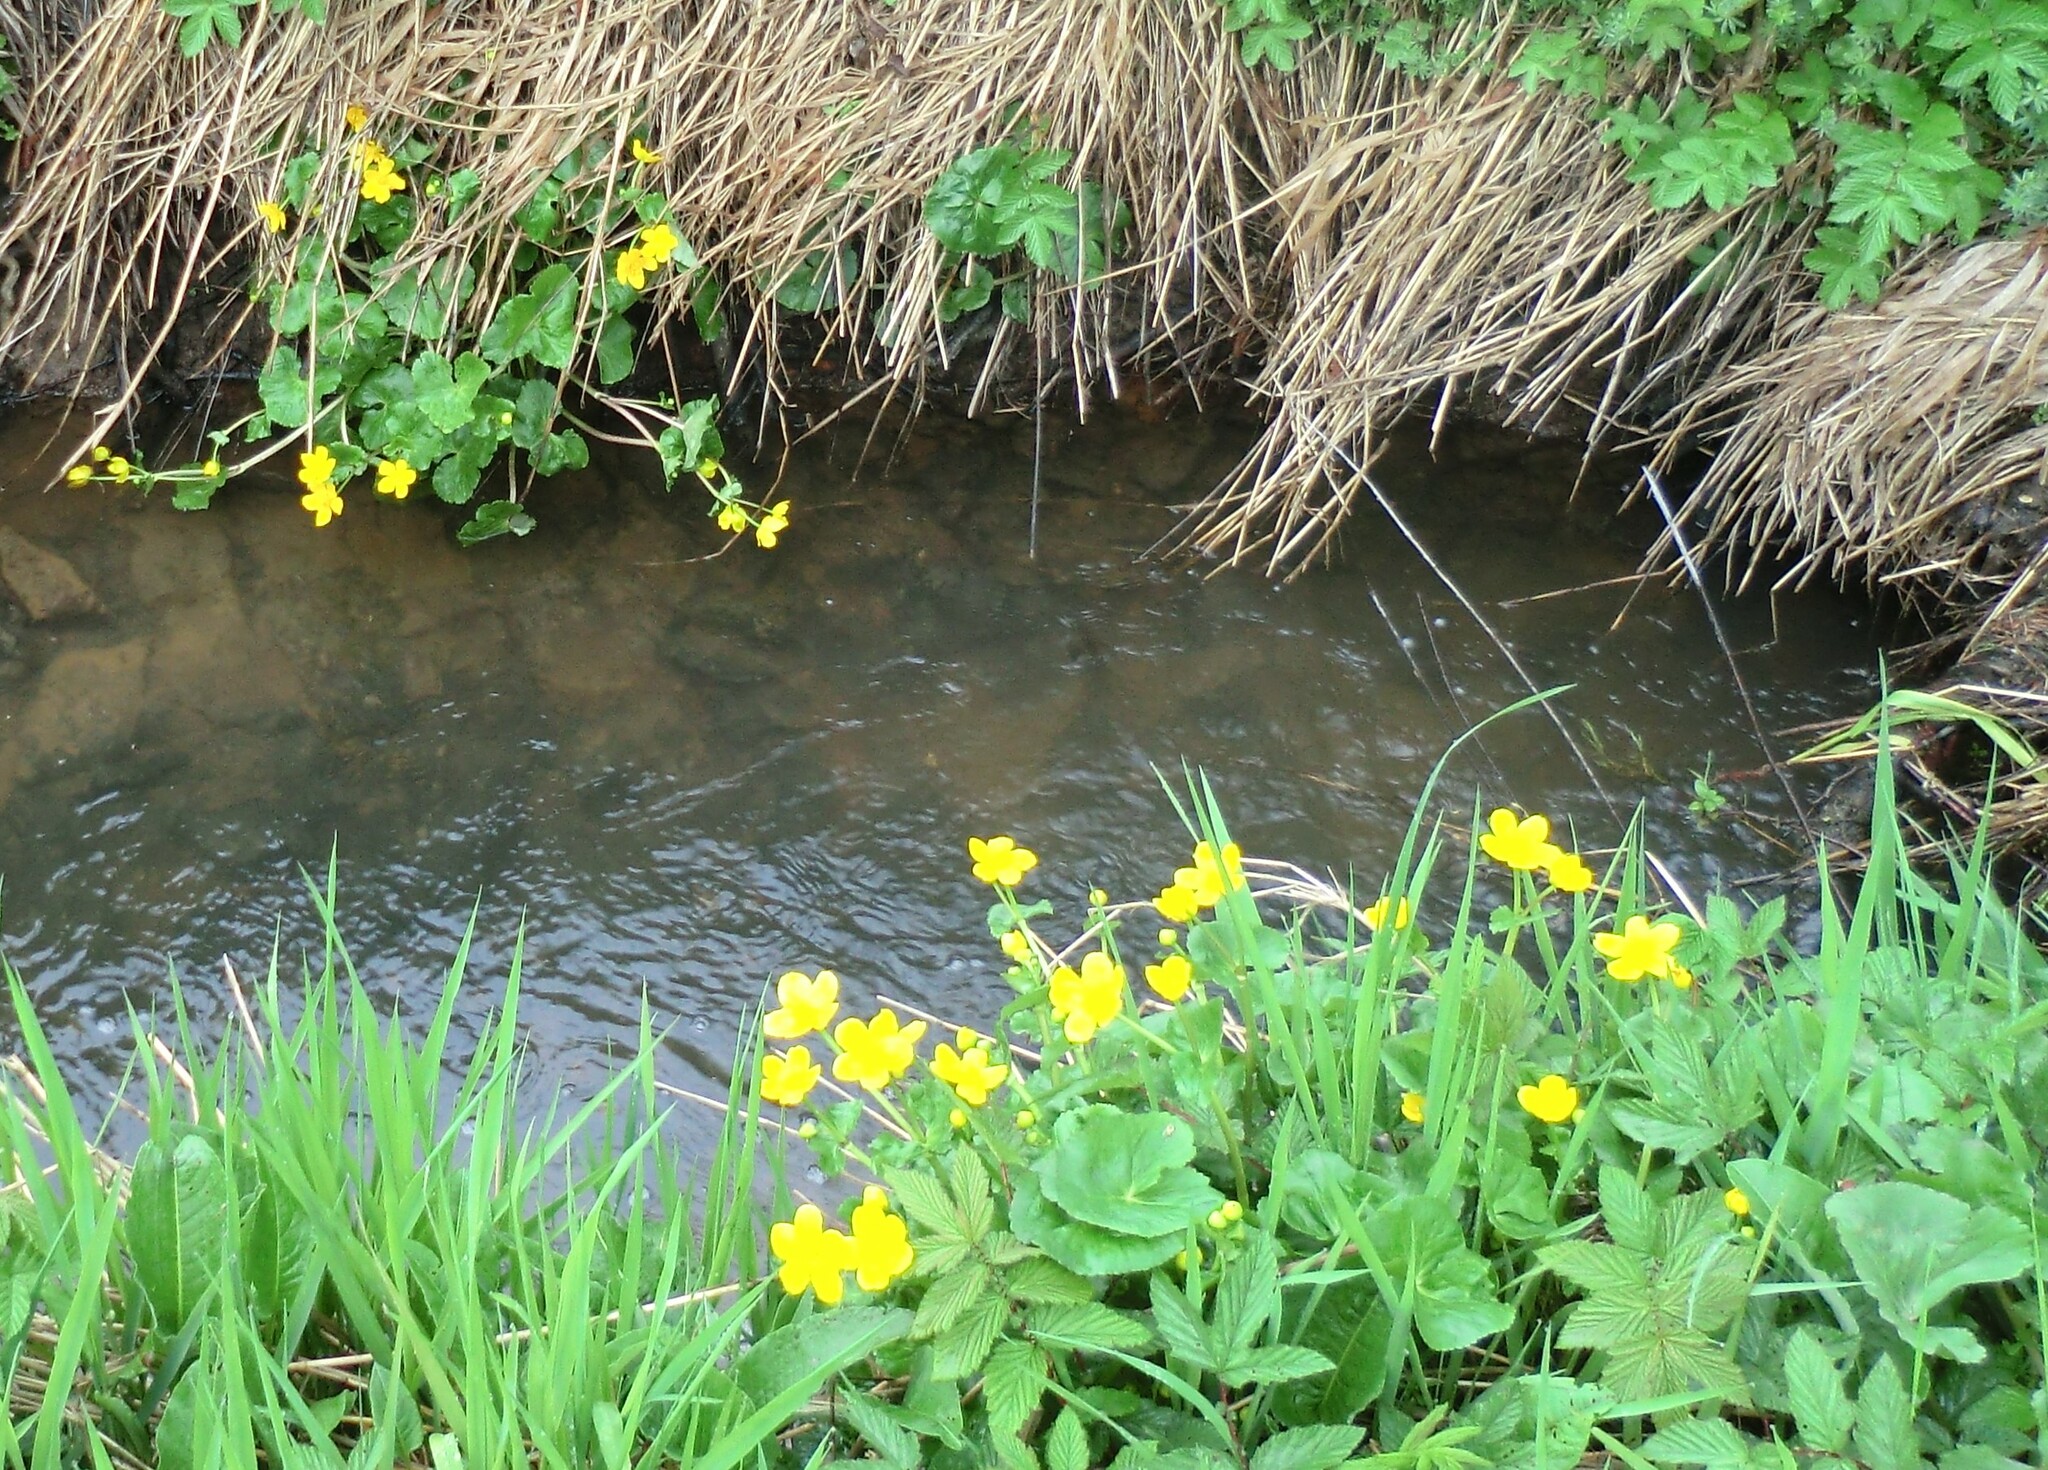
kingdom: Plantae
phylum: Tracheophyta
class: Magnoliopsida
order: Ranunculales
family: Ranunculaceae
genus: Caltha
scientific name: Caltha palustris
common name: Marsh marigold
